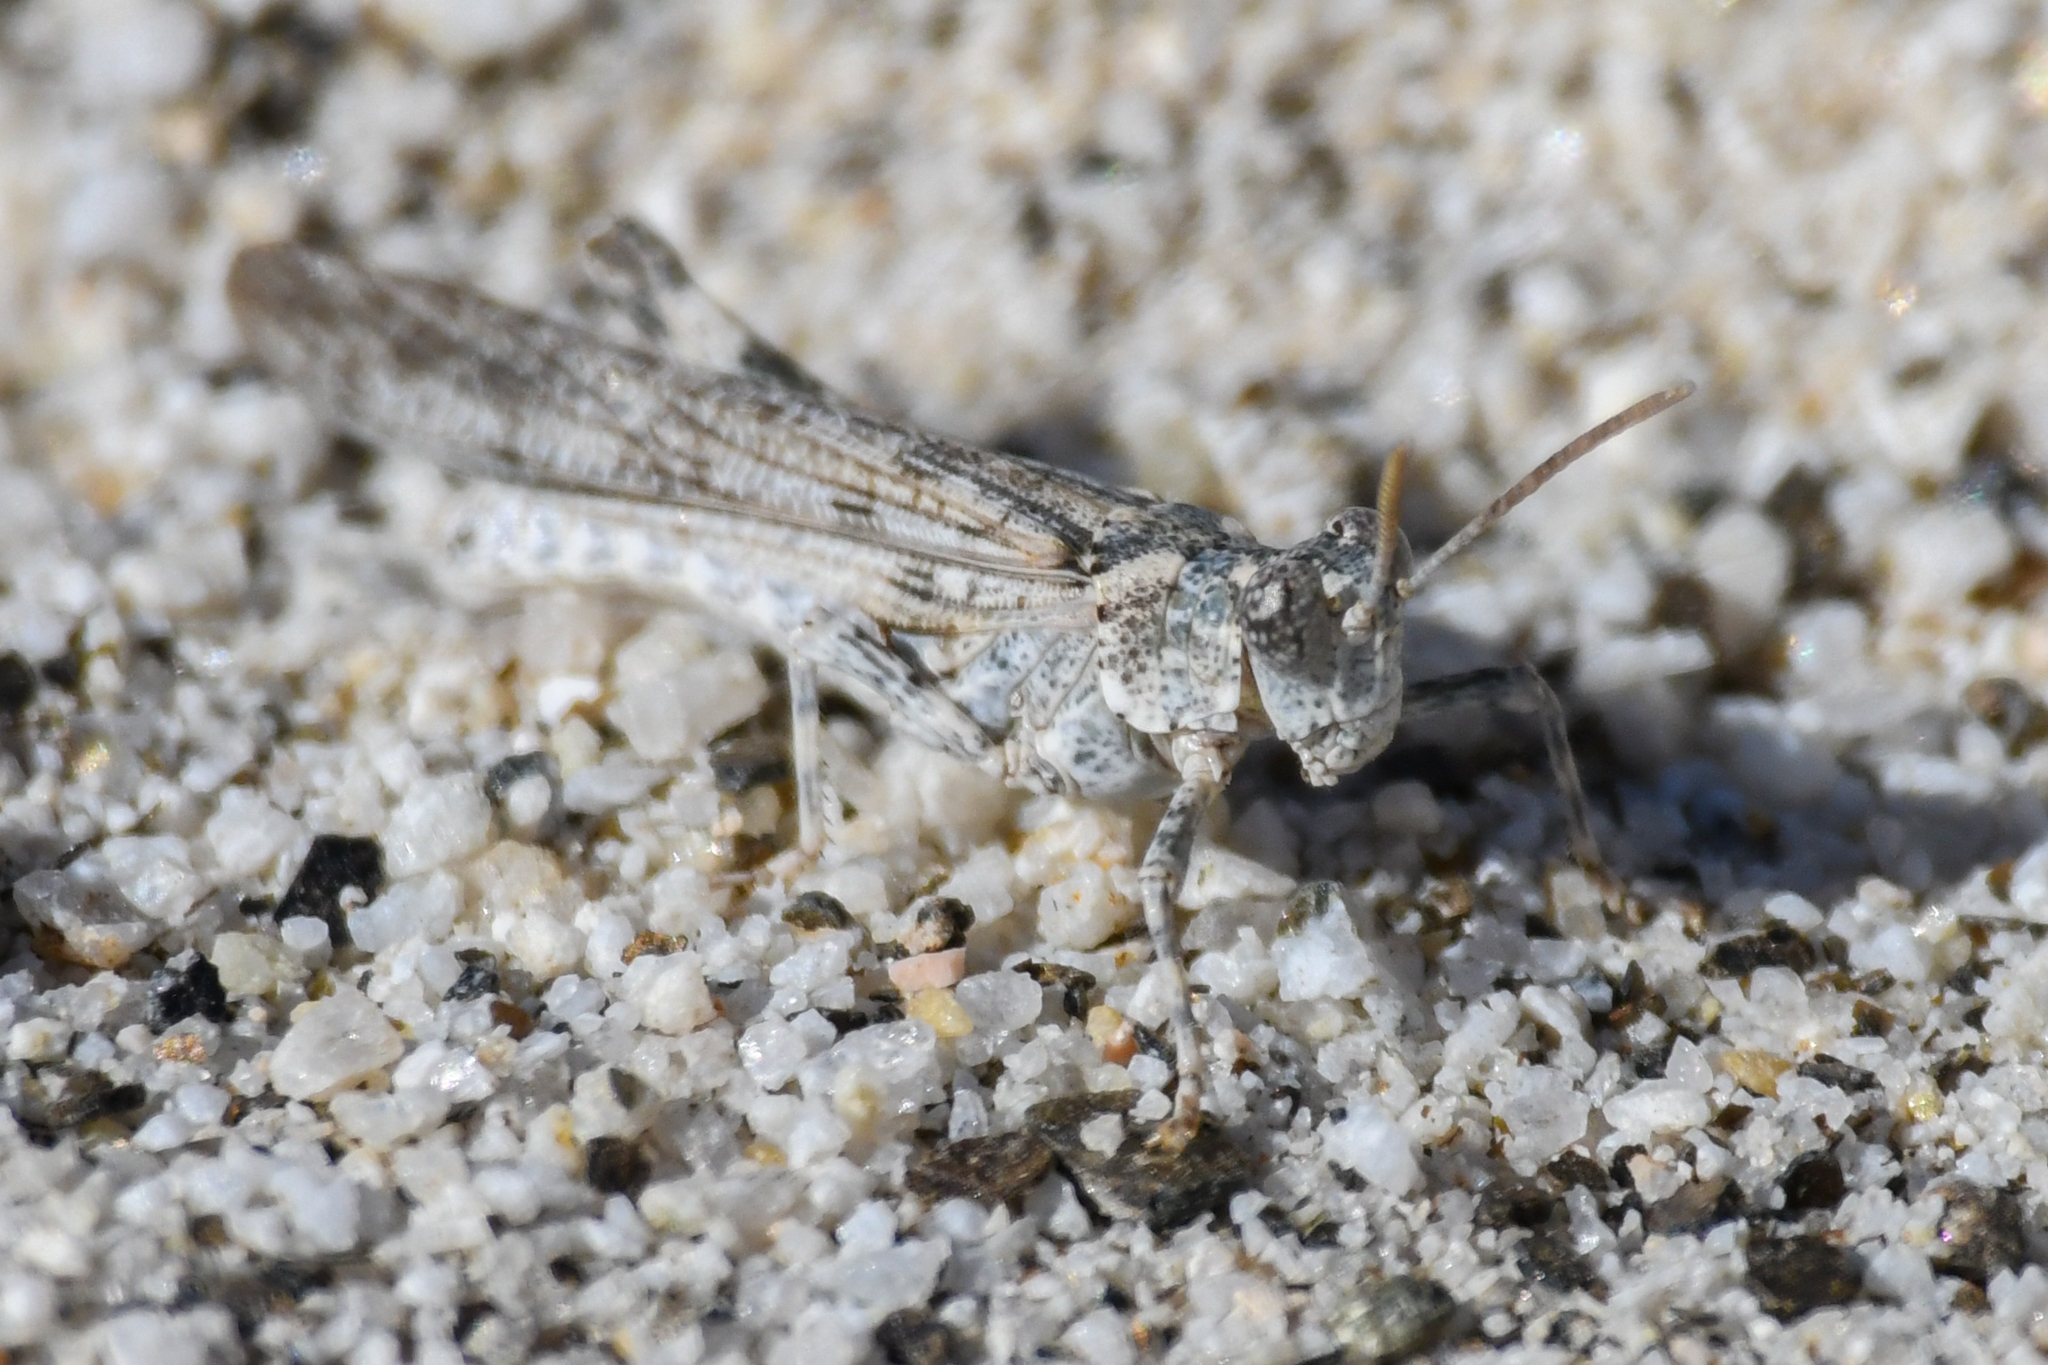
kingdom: Animalia
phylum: Arthropoda
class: Insecta
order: Orthoptera
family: Acrididae
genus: Anconia
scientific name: Anconia integra
